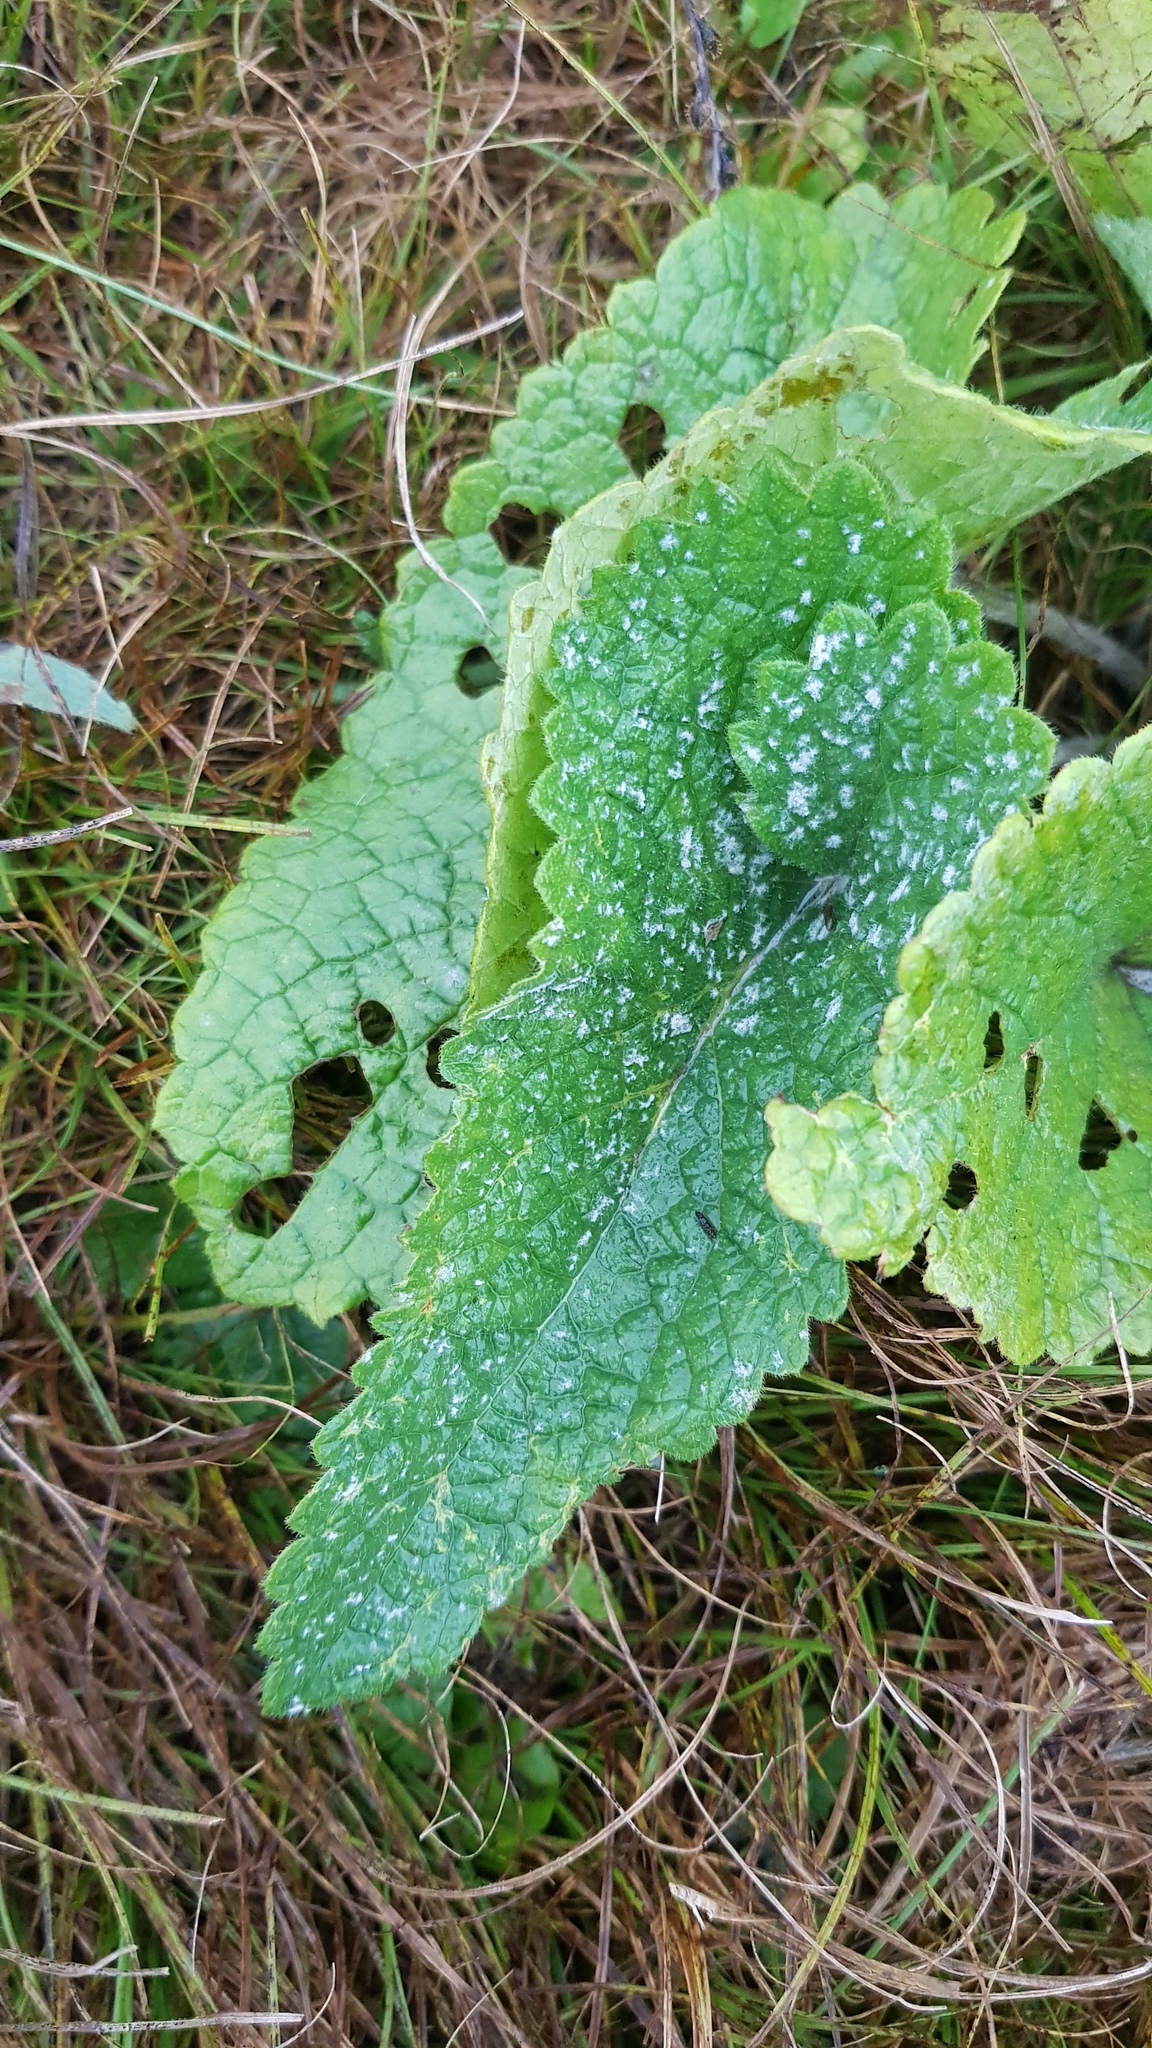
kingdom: Plantae
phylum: Tracheophyta
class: Magnoliopsida
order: Lamiales
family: Lamiaceae
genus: Phlomoides
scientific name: Phlomoides tuberosa
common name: Tuberous jerusalem sage
